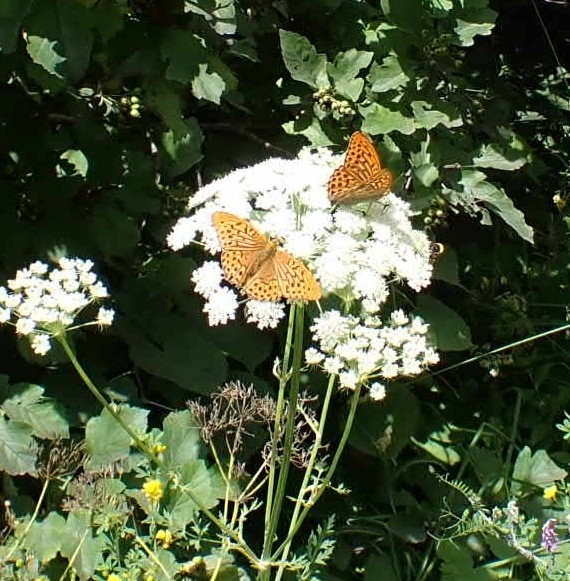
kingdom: Animalia
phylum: Arthropoda
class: Insecta
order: Lepidoptera
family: Nymphalidae
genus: Argynnis
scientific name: Argynnis paphia
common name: Silver-washed fritillary
